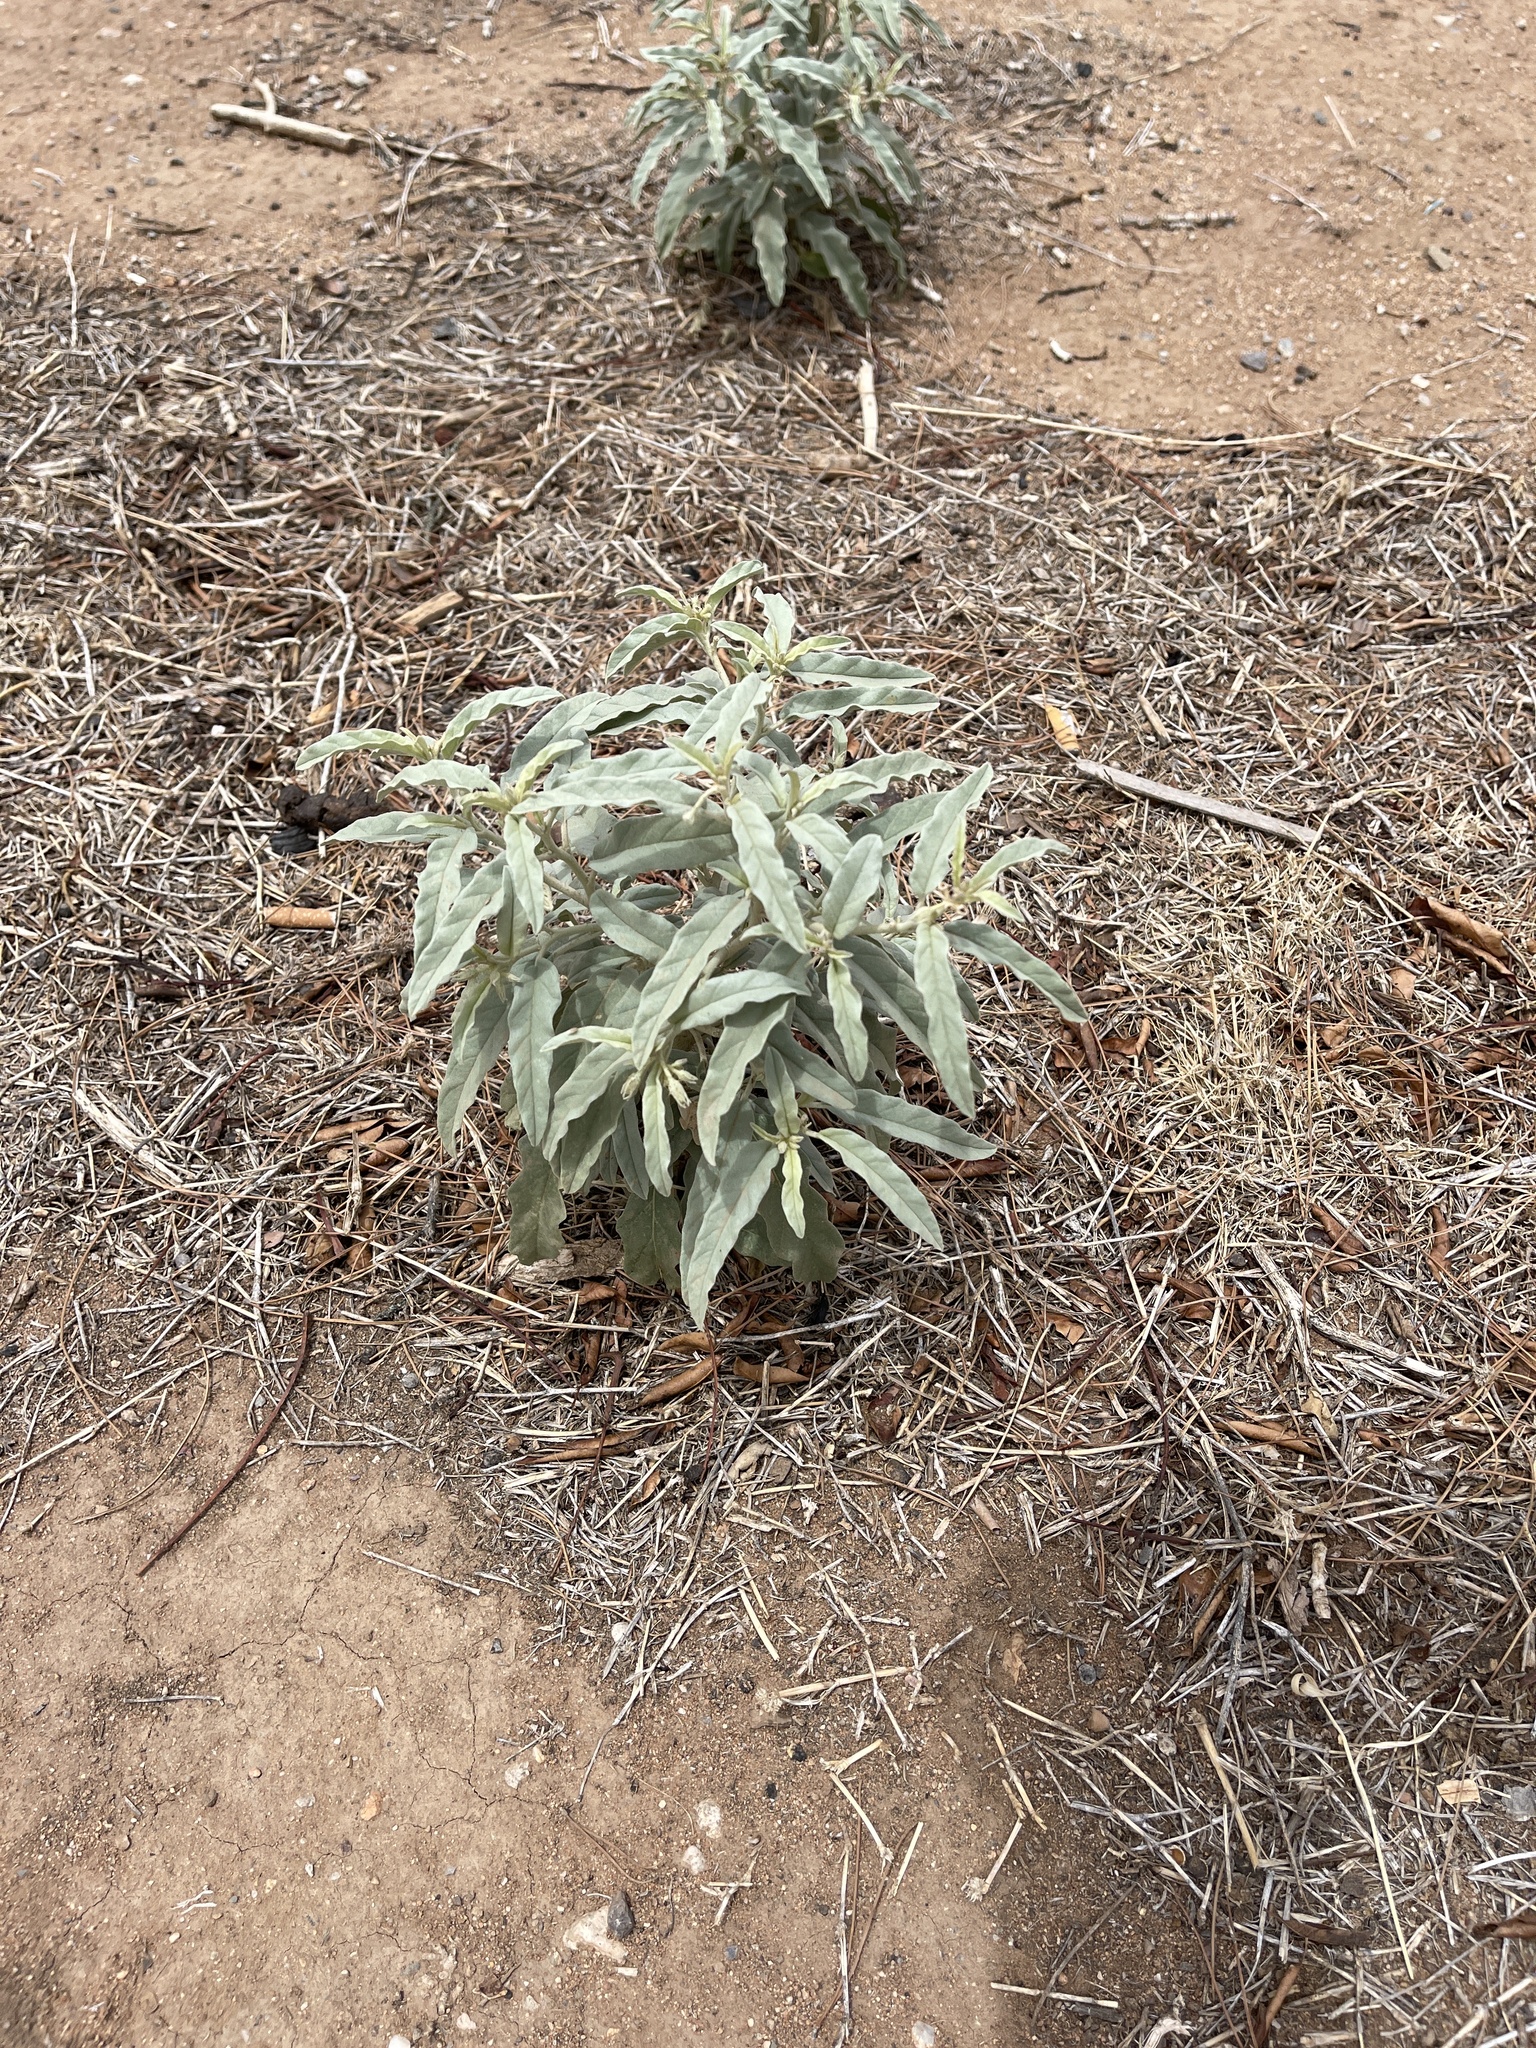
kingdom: Plantae
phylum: Tracheophyta
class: Magnoliopsida
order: Solanales
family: Solanaceae
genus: Solanum
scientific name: Solanum elaeagnifolium
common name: Silverleaf nightshade
